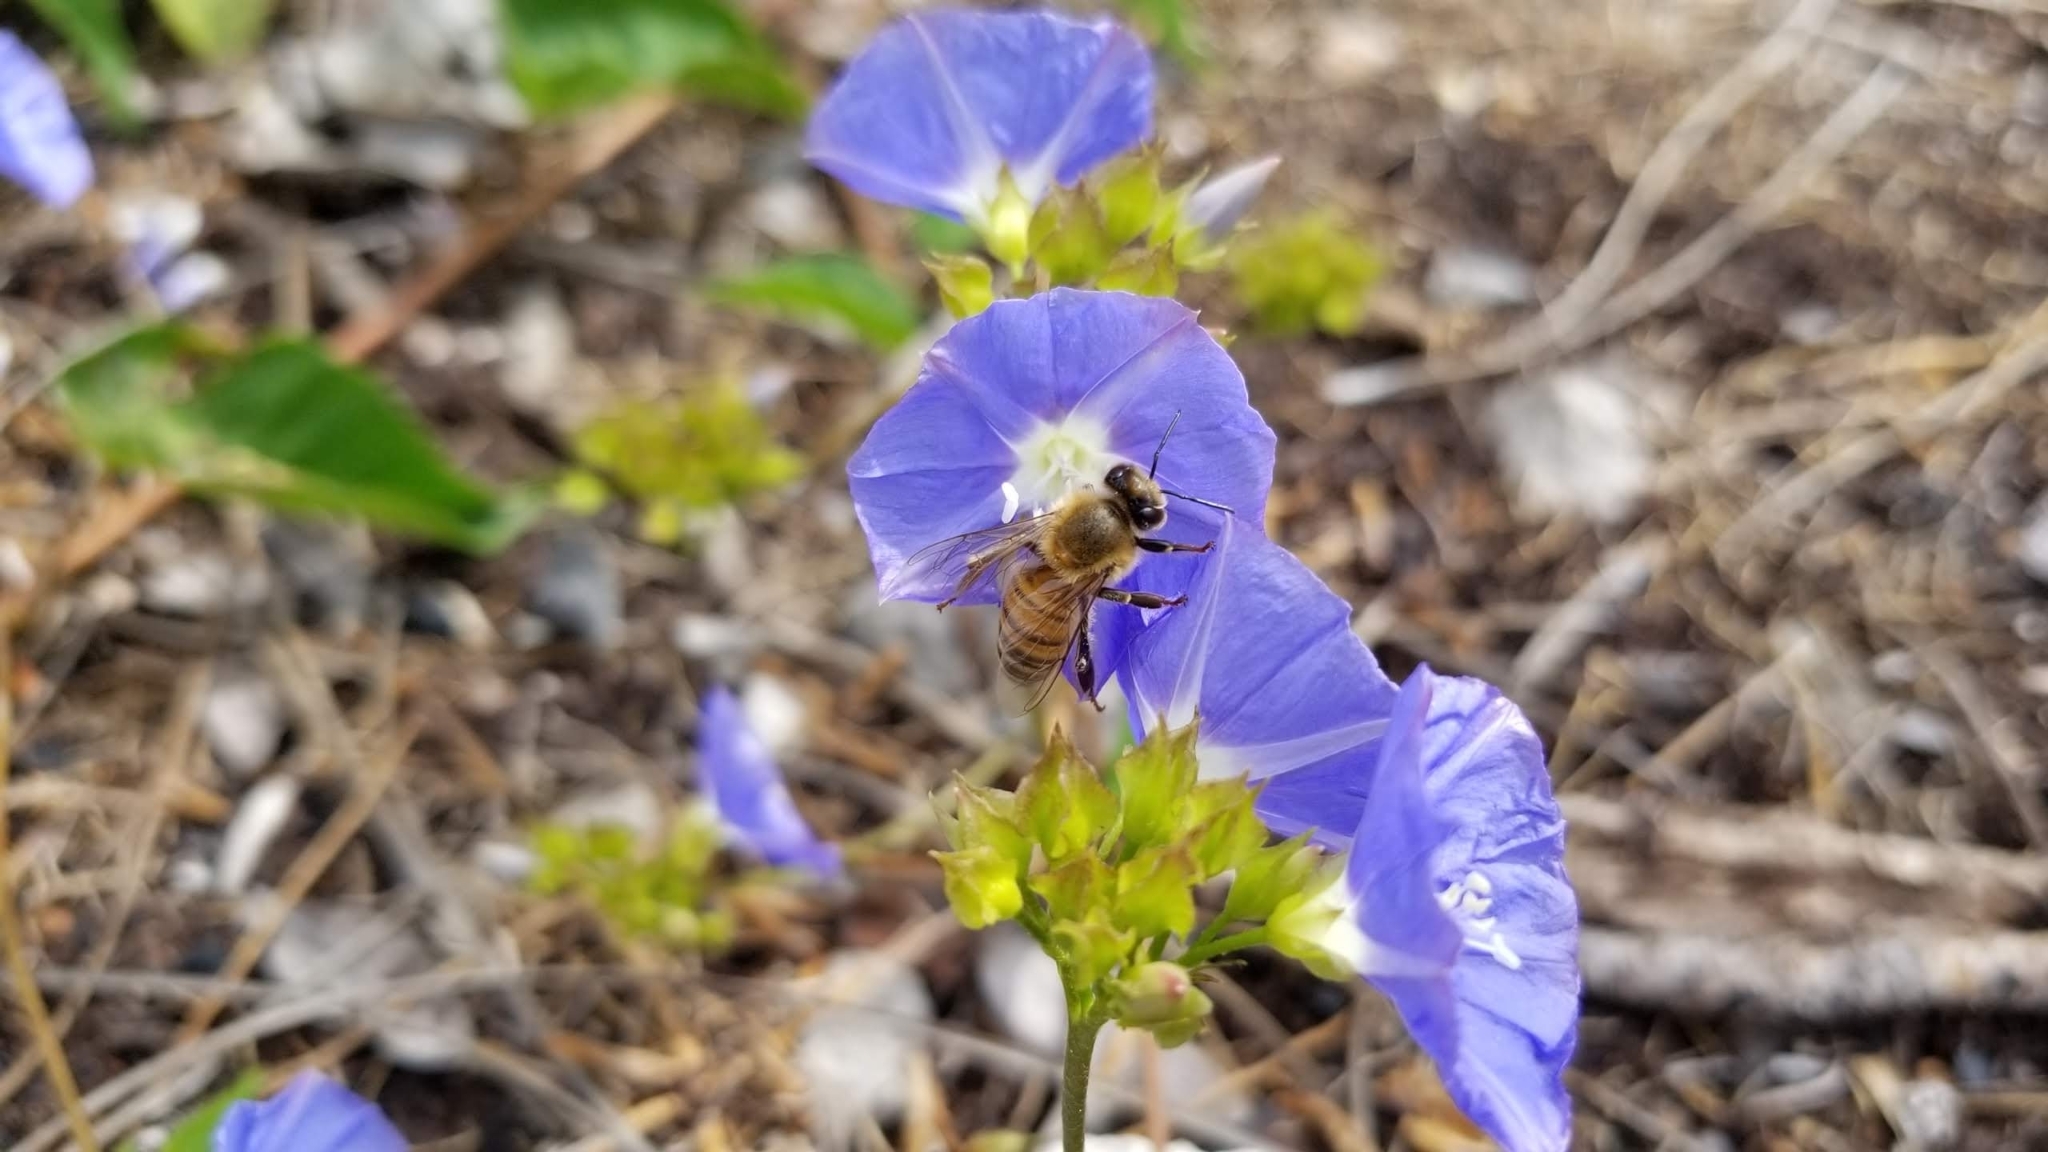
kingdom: Plantae
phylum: Tracheophyta
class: Magnoliopsida
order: Solanales
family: Convolvulaceae
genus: Jacquemontia
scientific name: Jacquemontia pentanthos
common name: Skyblue clustervine
